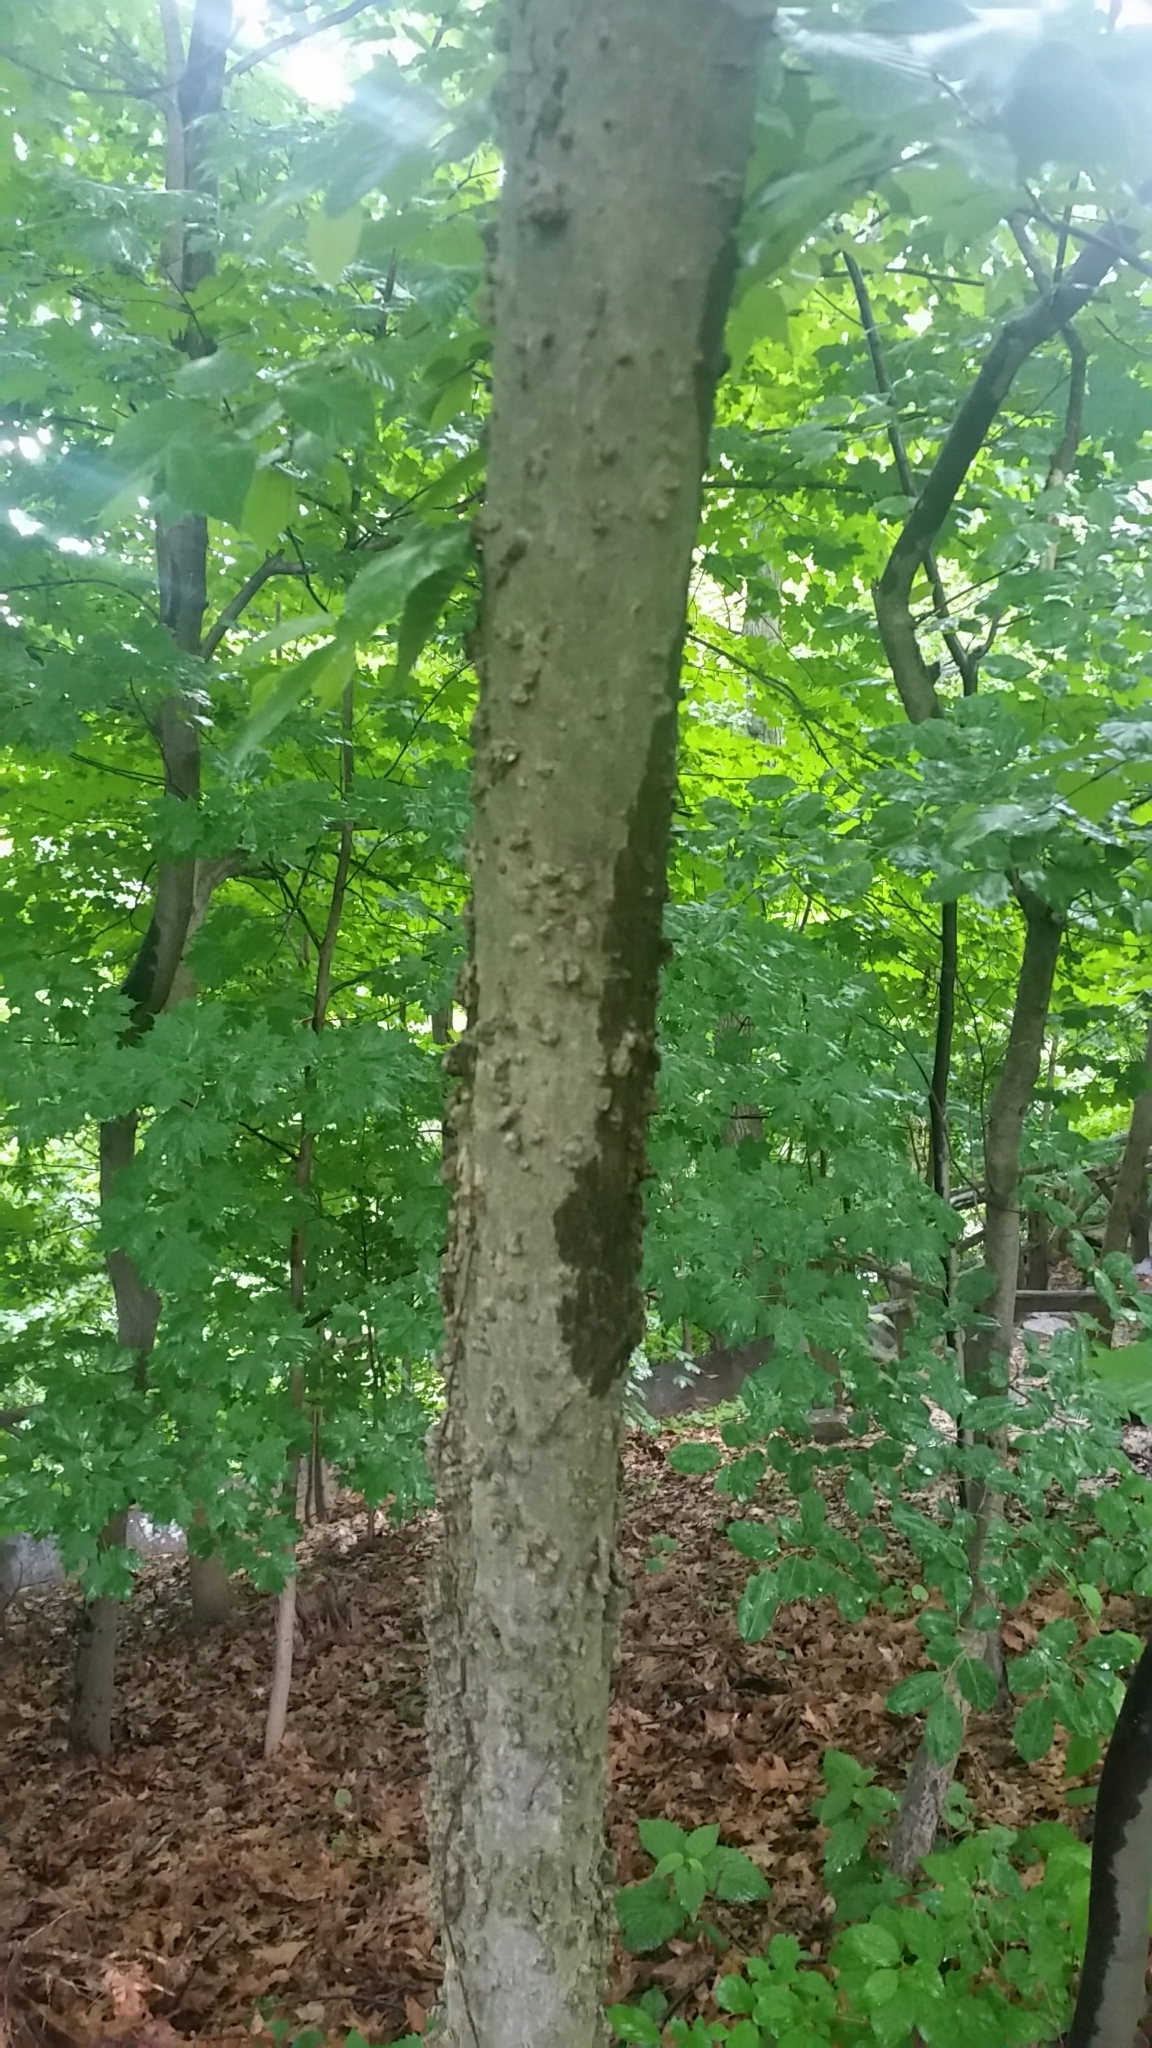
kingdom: Plantae
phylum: Tracheophyta
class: Magnoliopsida
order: Rosales
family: Cannabaceae
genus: Celtis
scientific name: Celtis occidentalis
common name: Common hackberry
